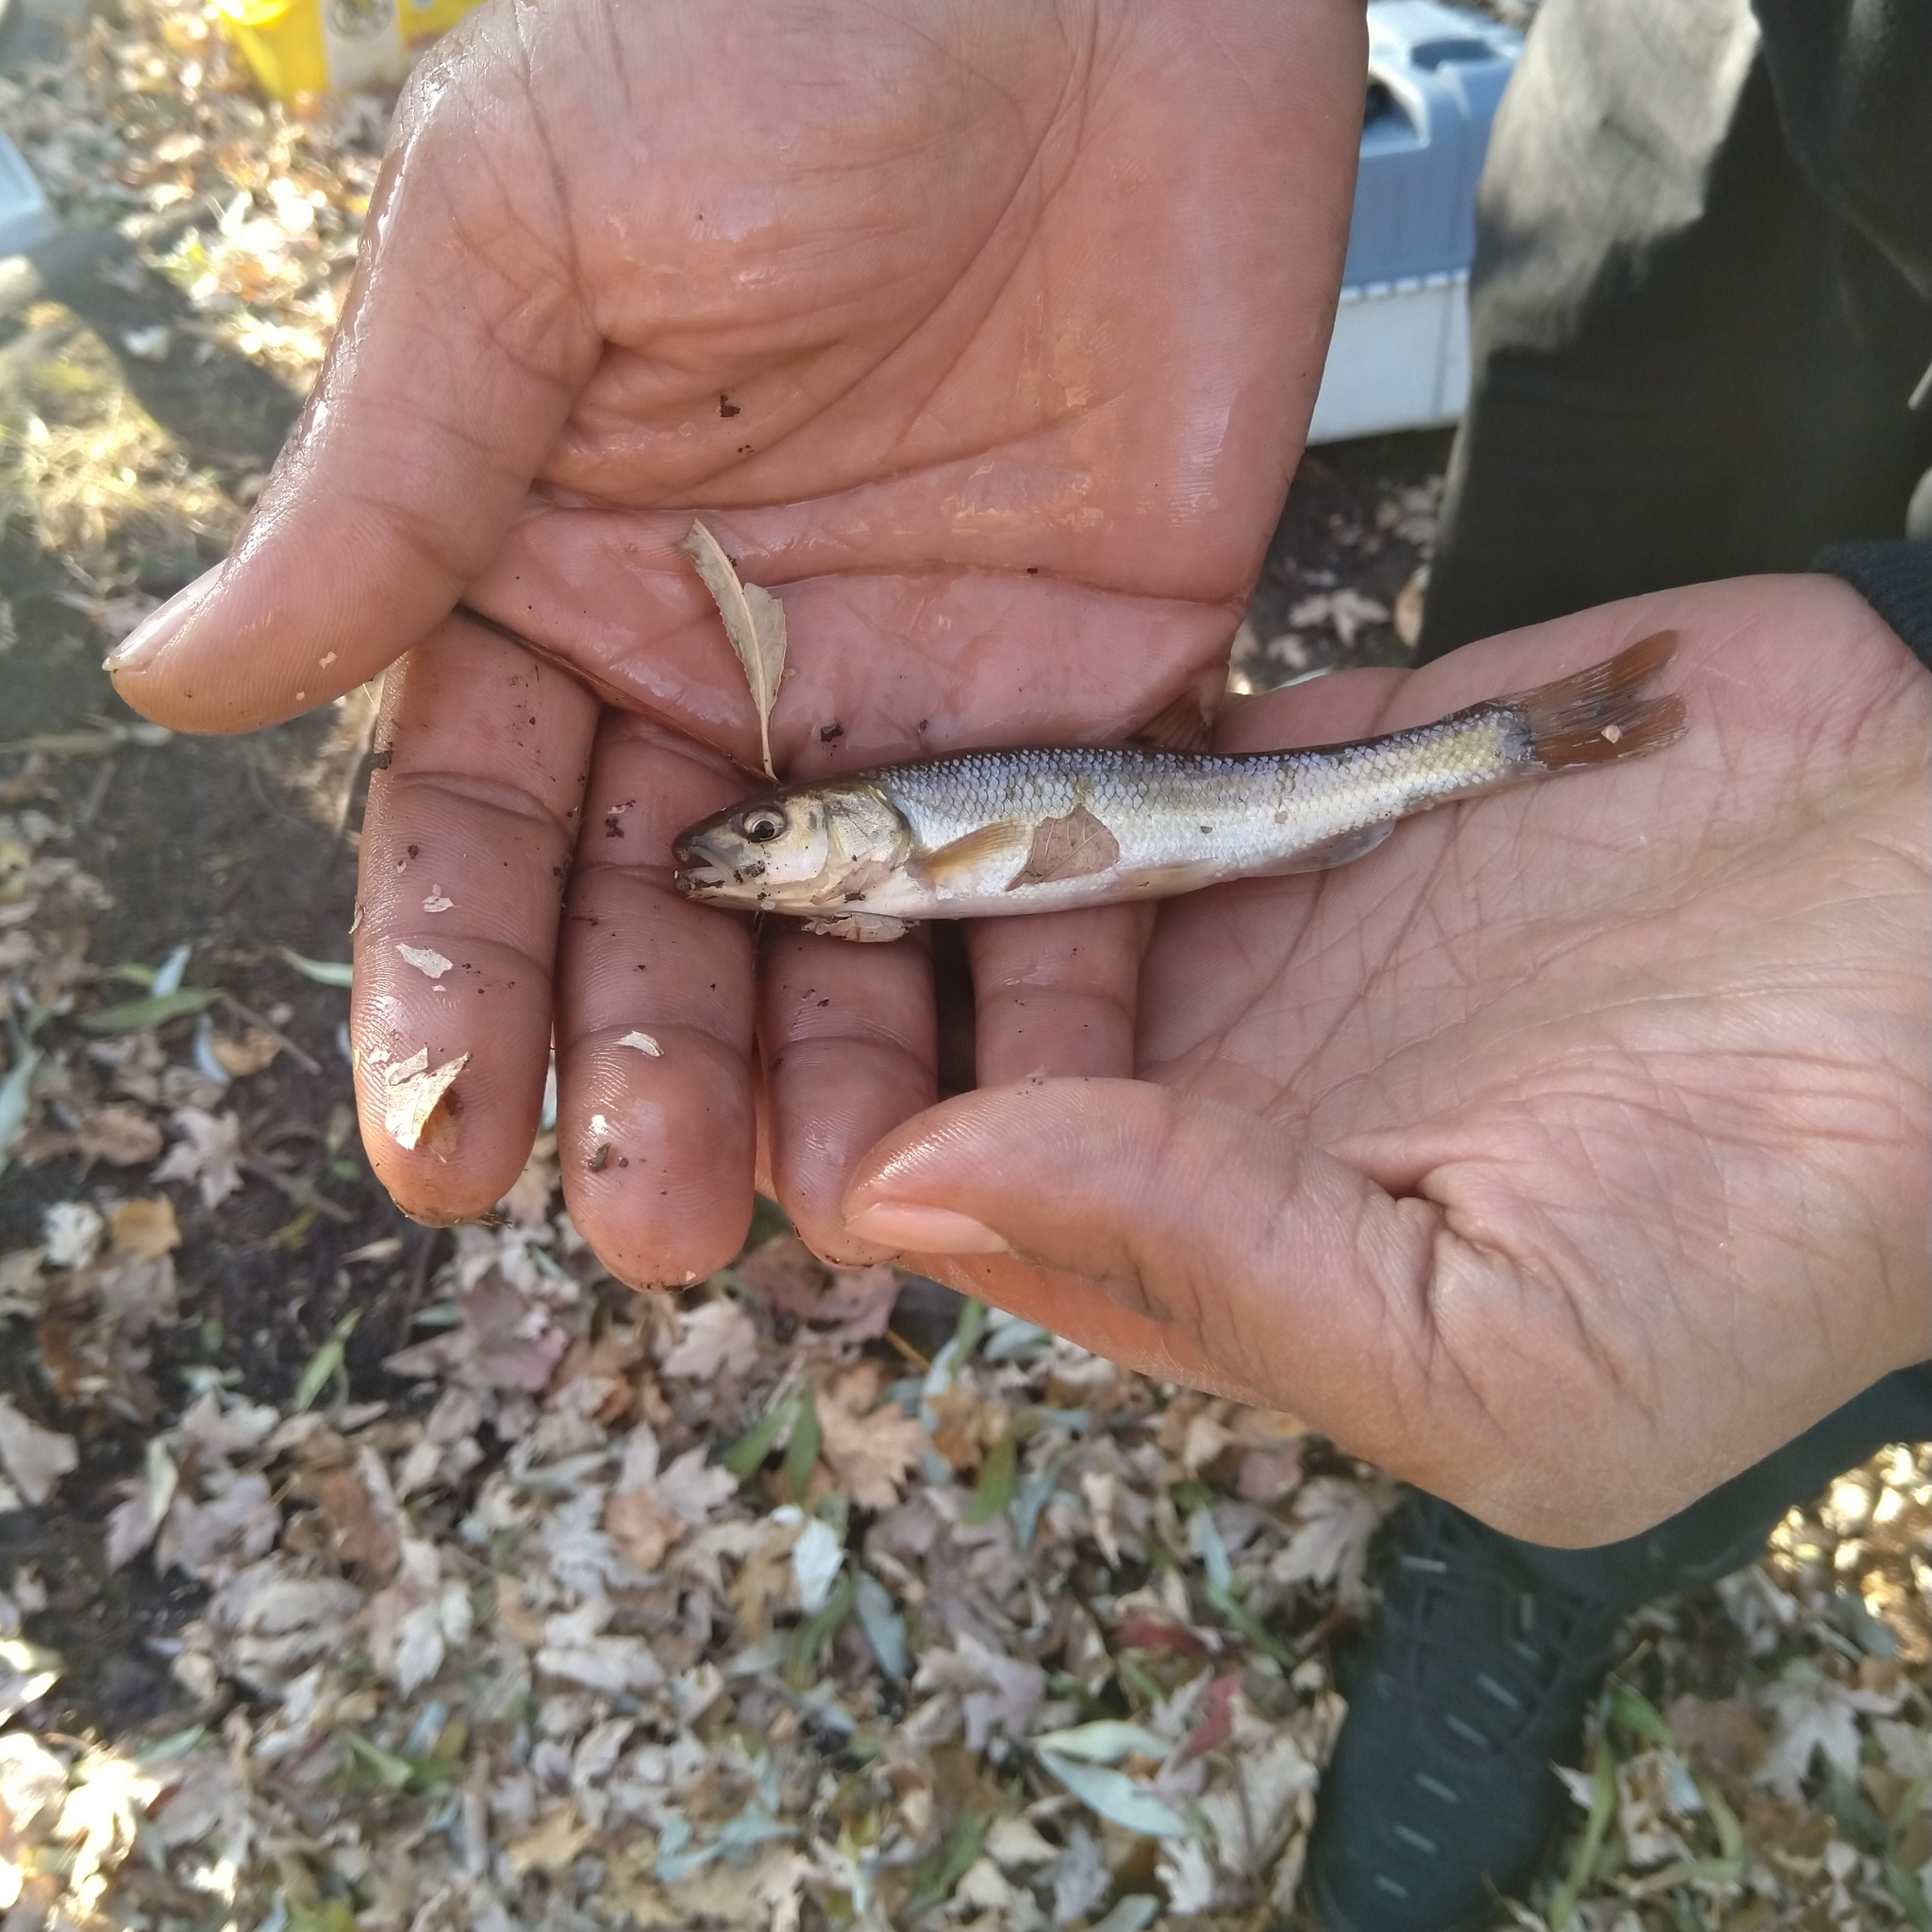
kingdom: Animalia
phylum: Chordata
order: Cypriniformes
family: Cyprinidae
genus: Semotilus
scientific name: Semotilus atromaculatus
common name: Creek chub
